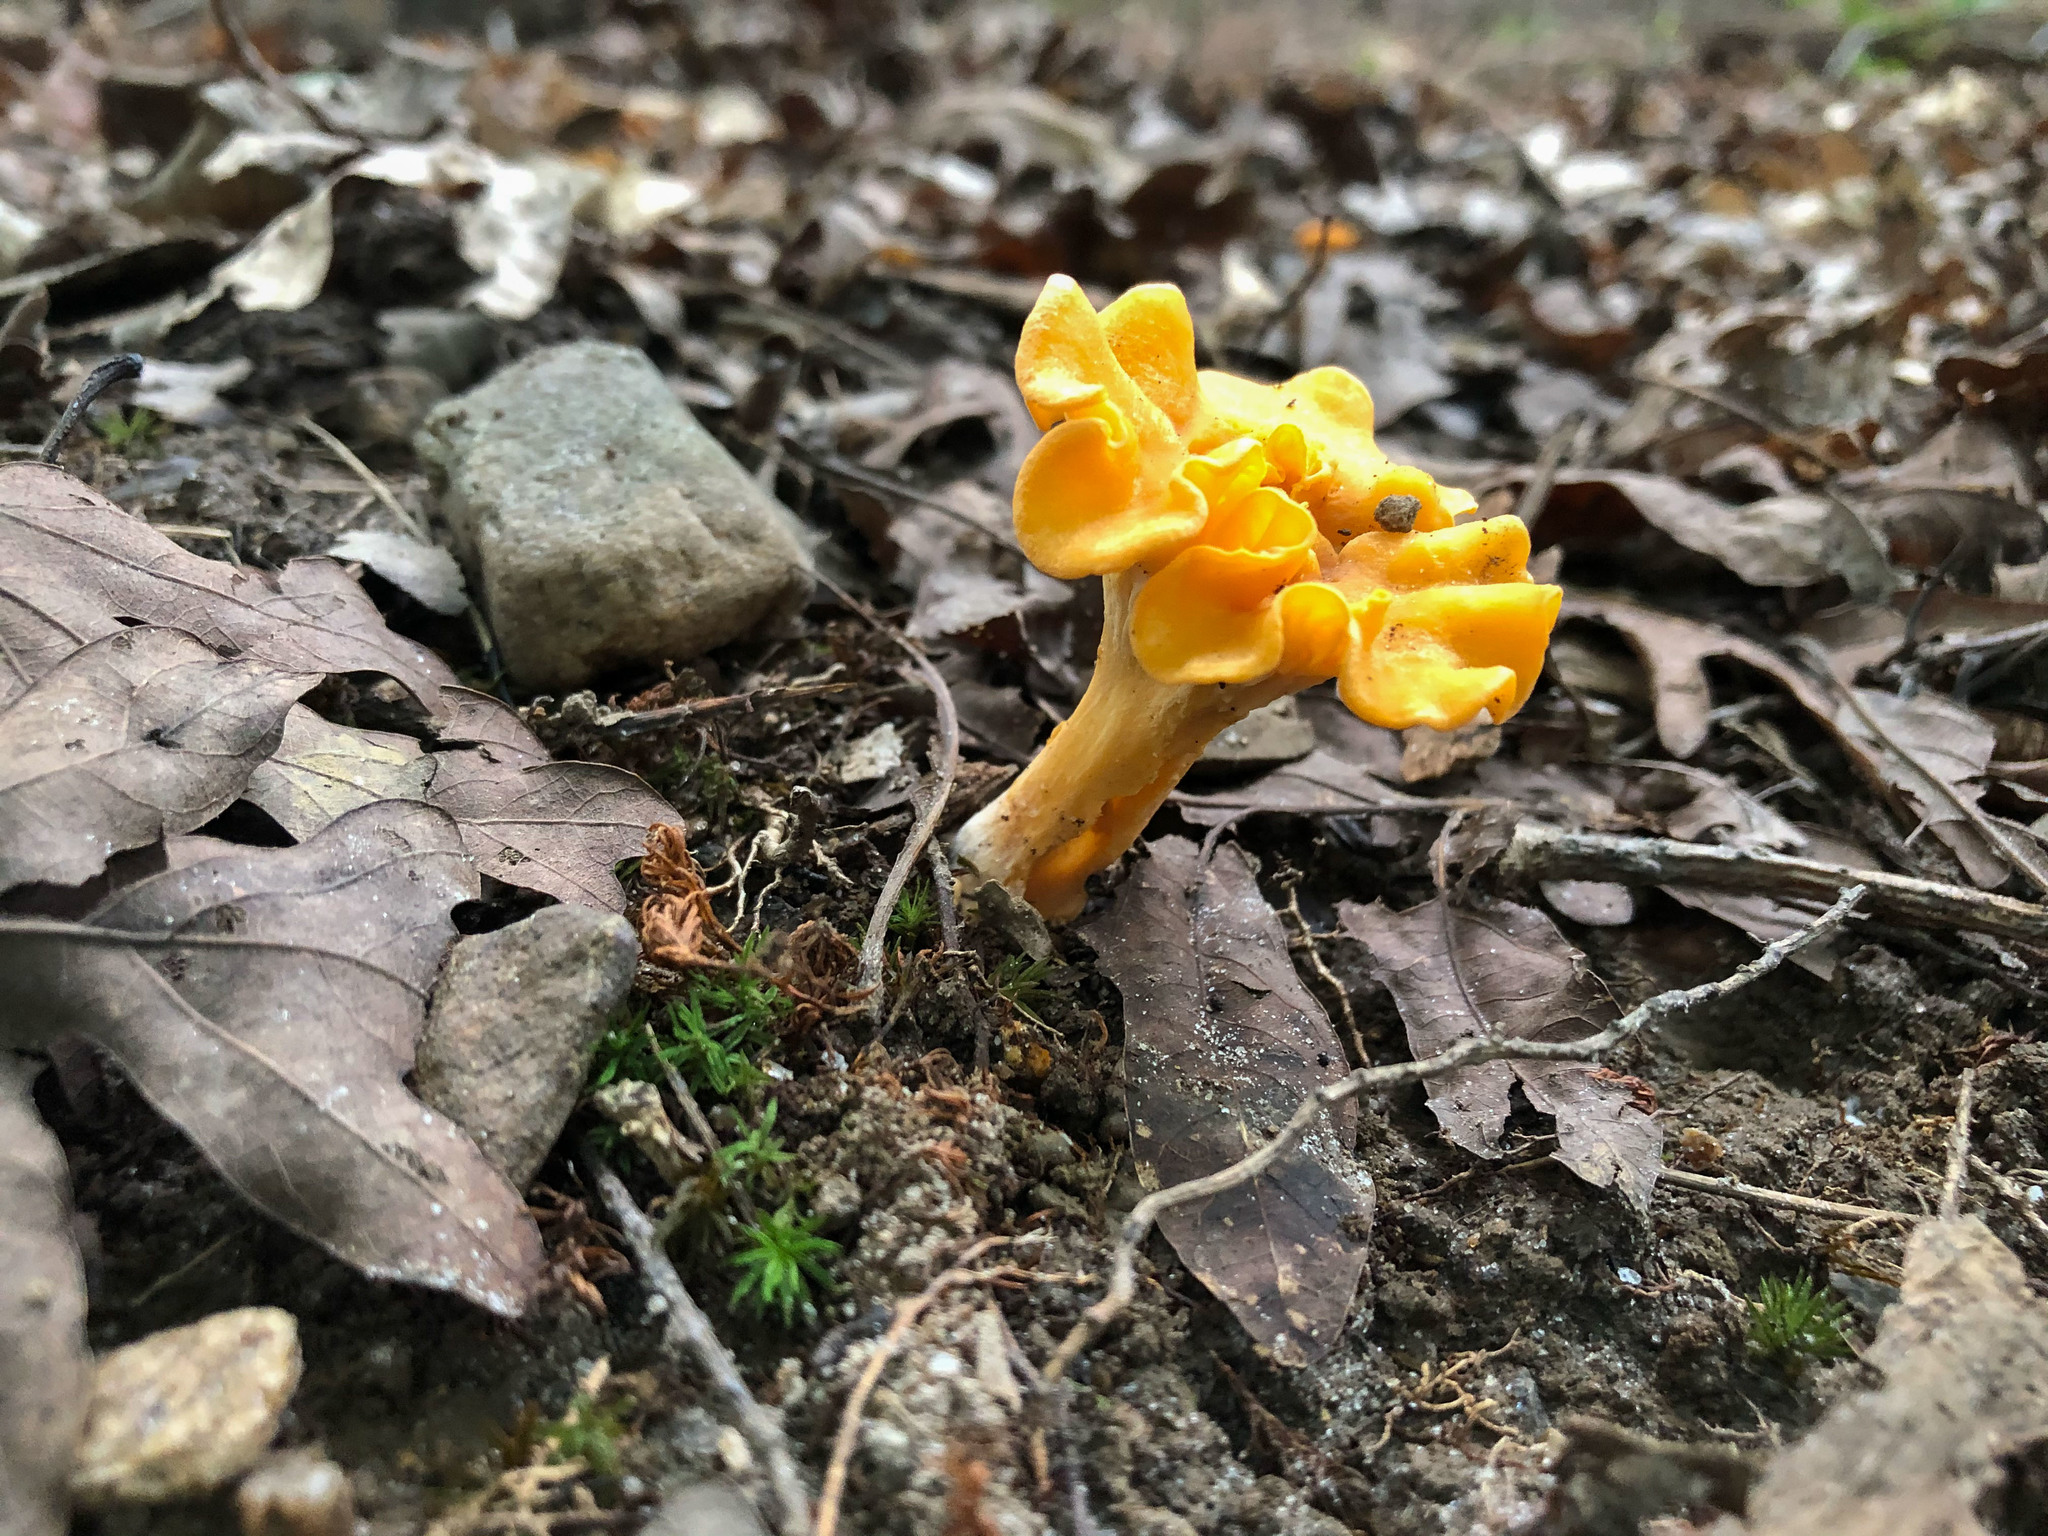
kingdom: Fungi
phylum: Basidiomycota
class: Agaricomycetes
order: Cantharellales
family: Hydnaceae
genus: Cantharellus
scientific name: Cantharellus lateritius
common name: Smooth chanterelle
